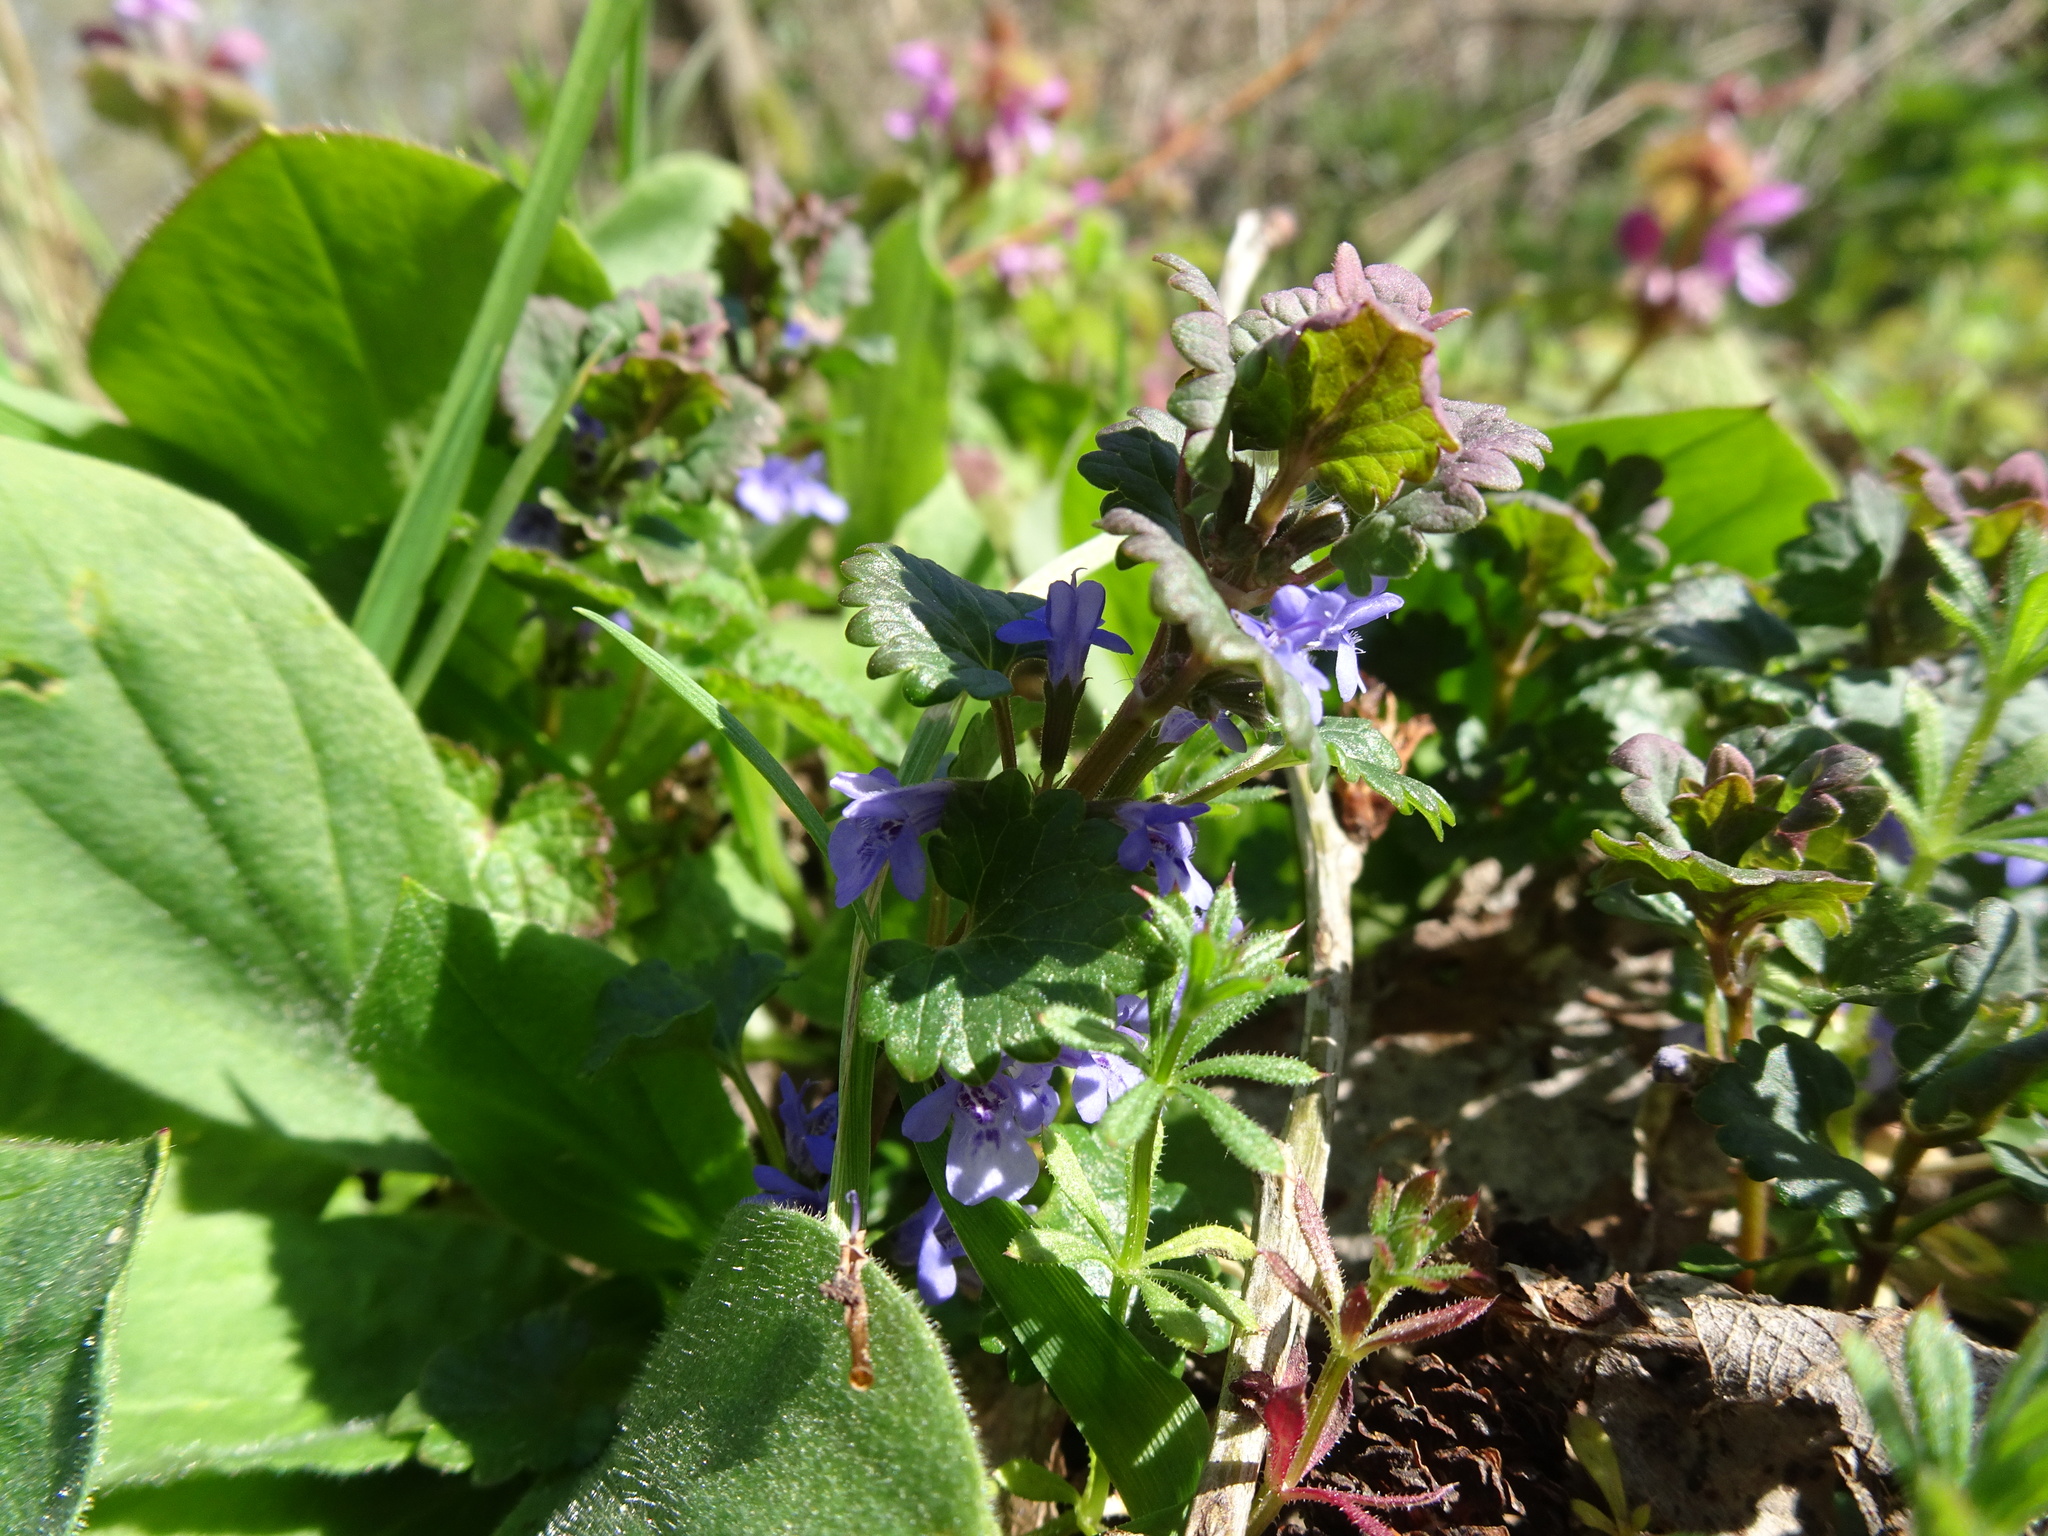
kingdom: Plantae
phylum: Tracheophyta
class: Magnoliopsida
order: Lamiales
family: Lamiaceae
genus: Glechoma
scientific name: Glechoma hederacea
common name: Ground ivy
